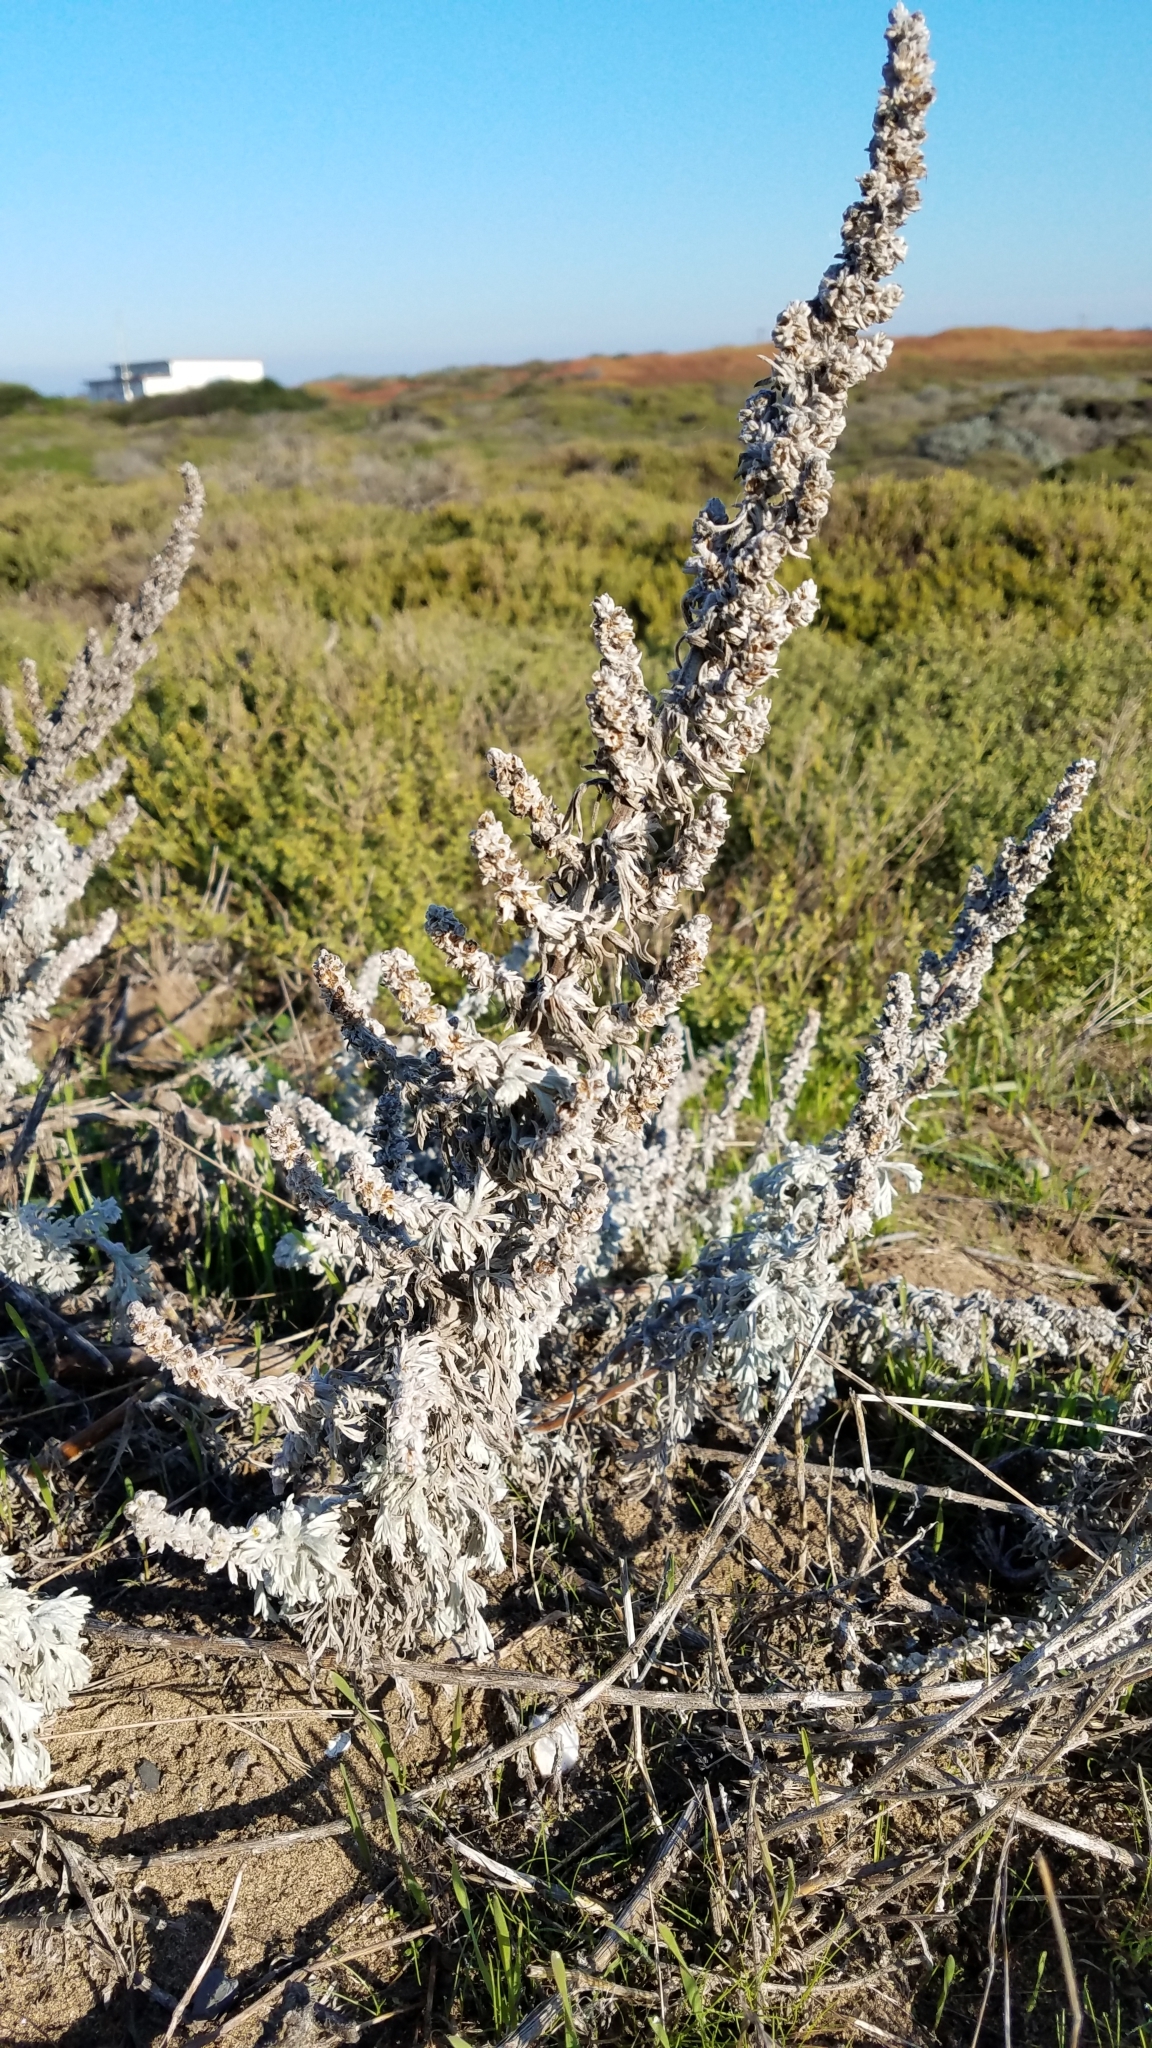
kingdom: Plantae
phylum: Tracheophyta
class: Magnoliopsida
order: Asterales
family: Asteraceae
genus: Artemisia
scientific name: Artemisia pycnocephala
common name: Coastal sagewort
